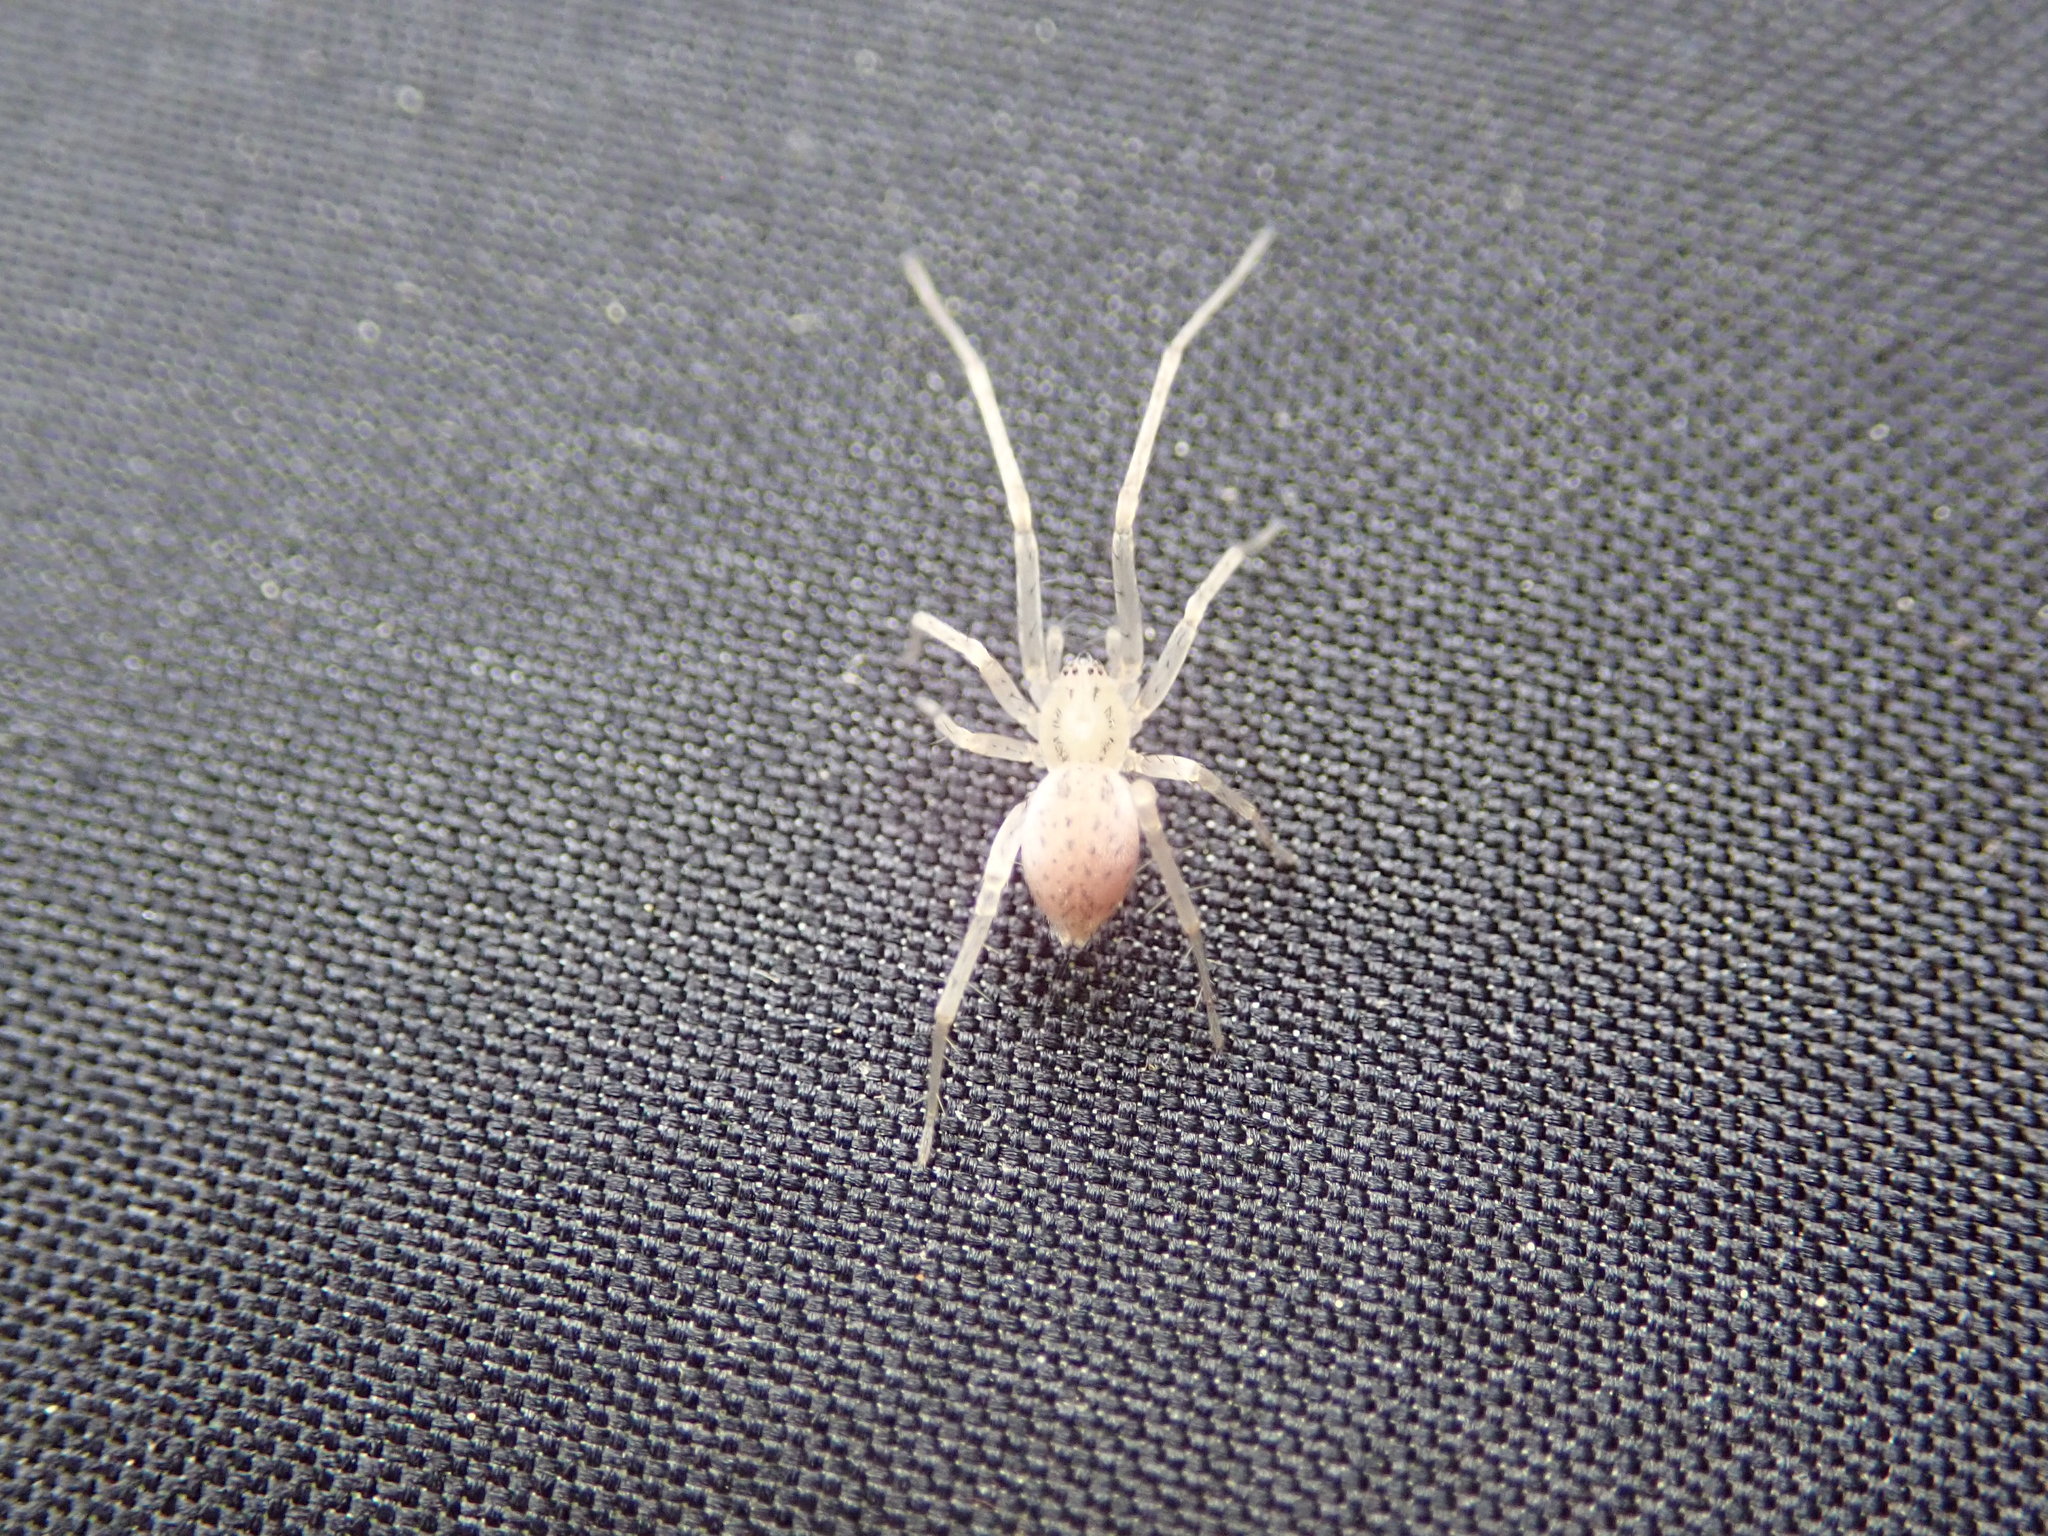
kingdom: Animalia
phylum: Arthropoda
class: Arachnida
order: Araneae
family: Anyphaenidae
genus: Wulfila
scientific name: Wulfila saltabundus
